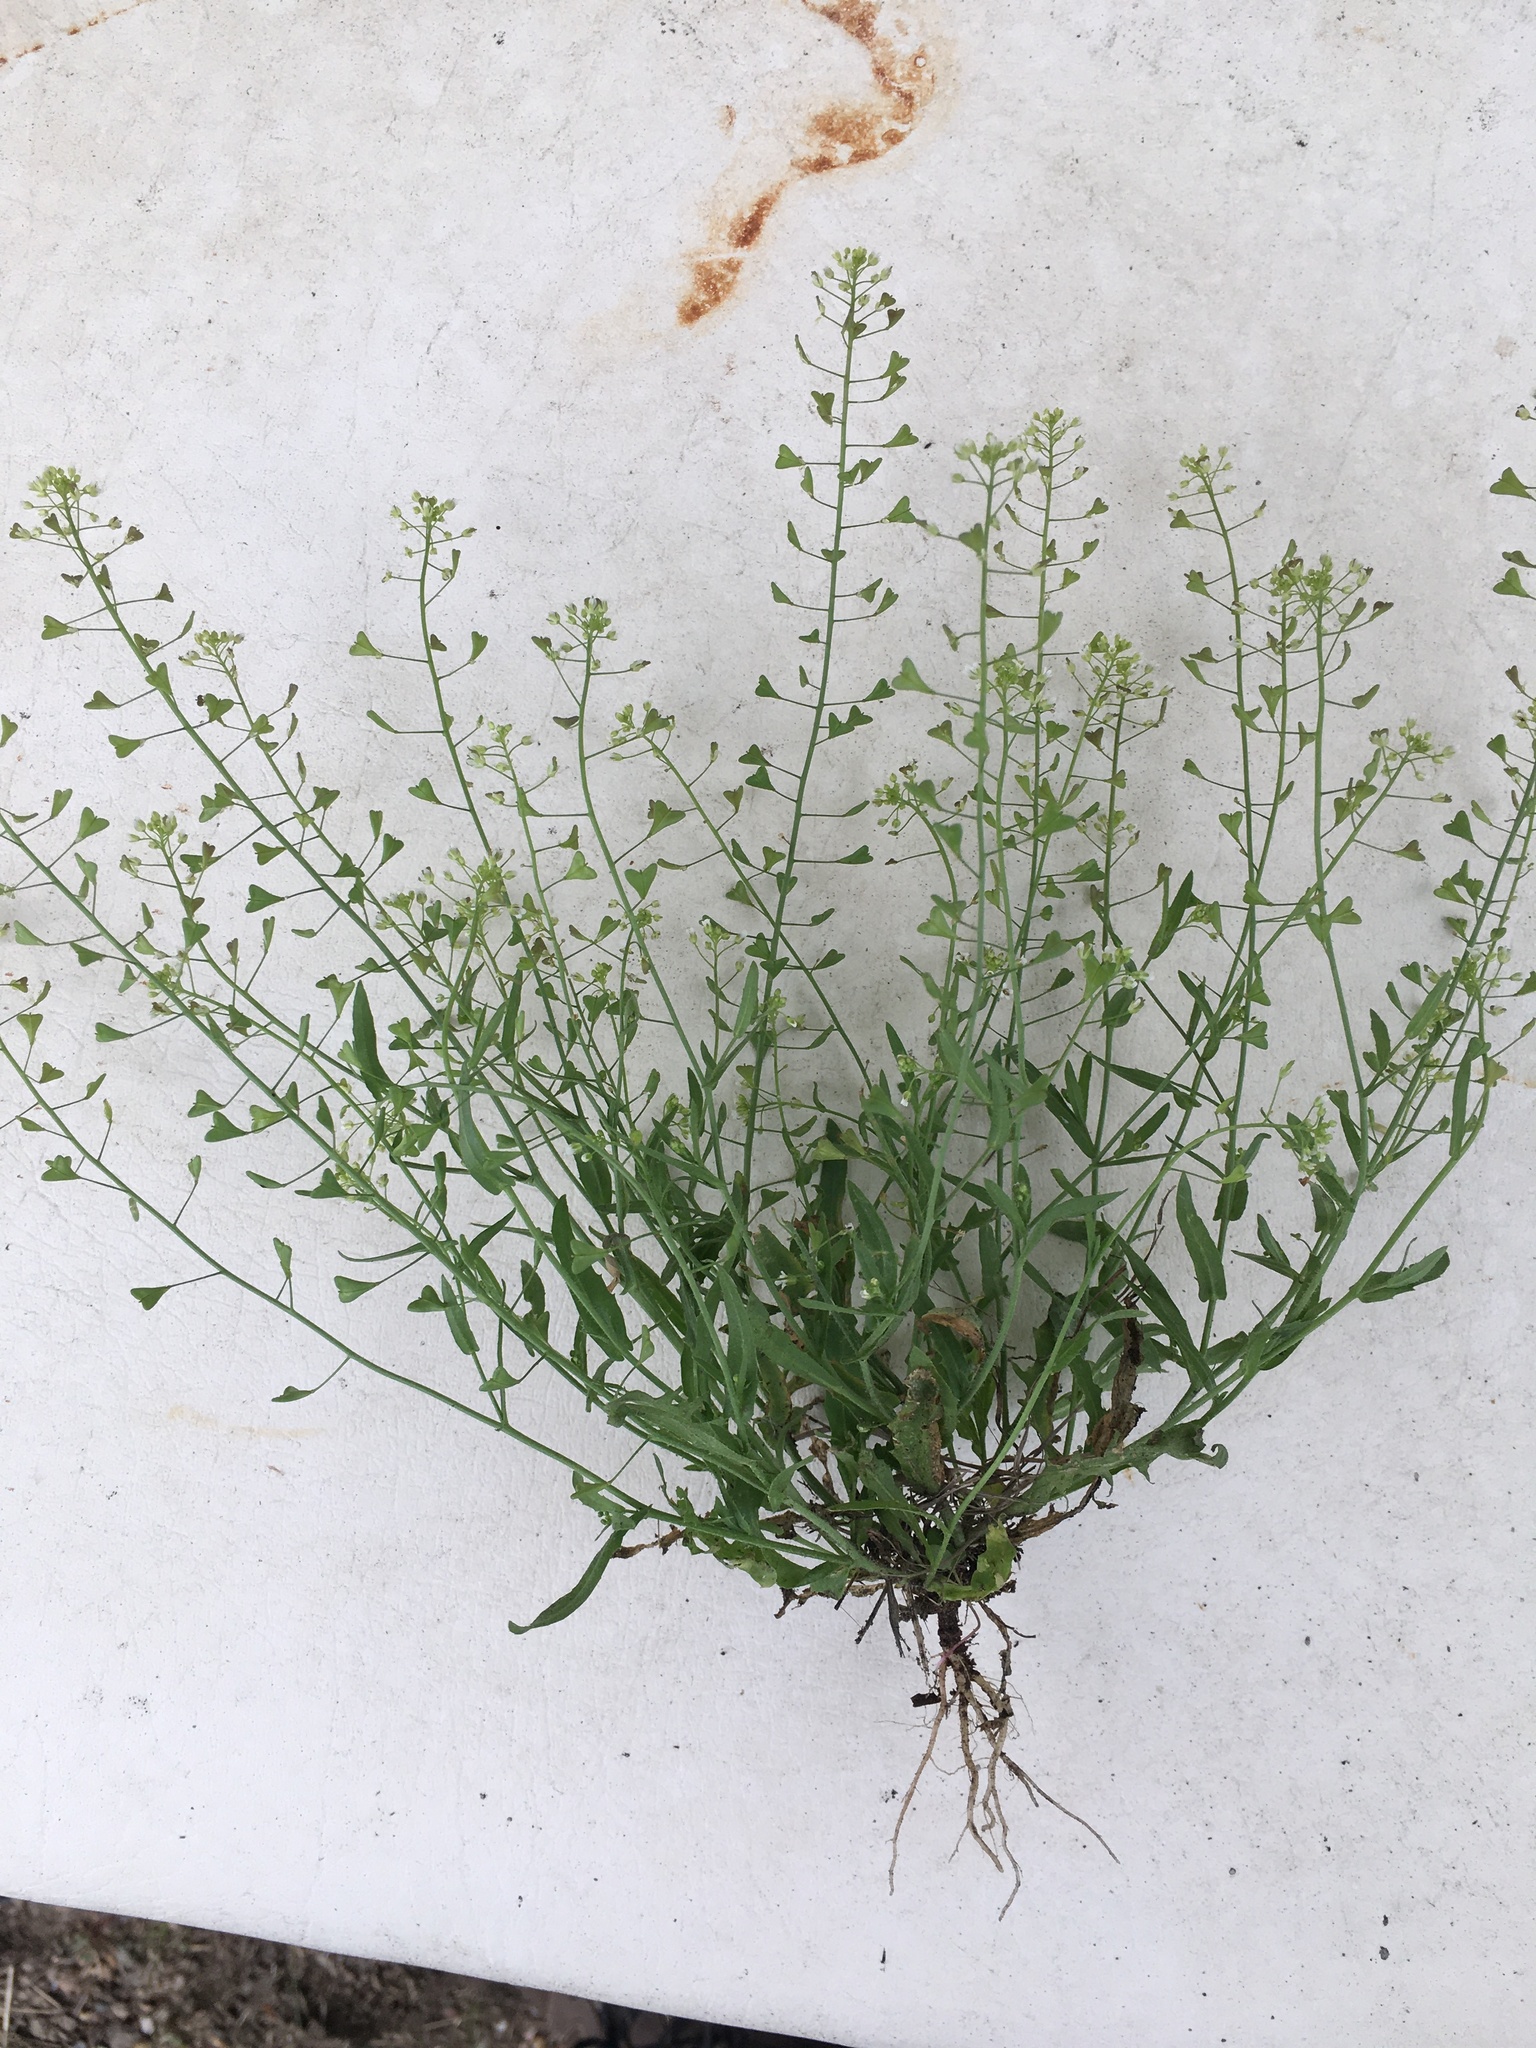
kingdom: Plantae
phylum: Tracheophyta
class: Magnoliopsida
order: Brassicales
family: Brassicaceae
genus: Capsella
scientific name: Capsella bursa-pastoris
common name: Shepherd's purse
